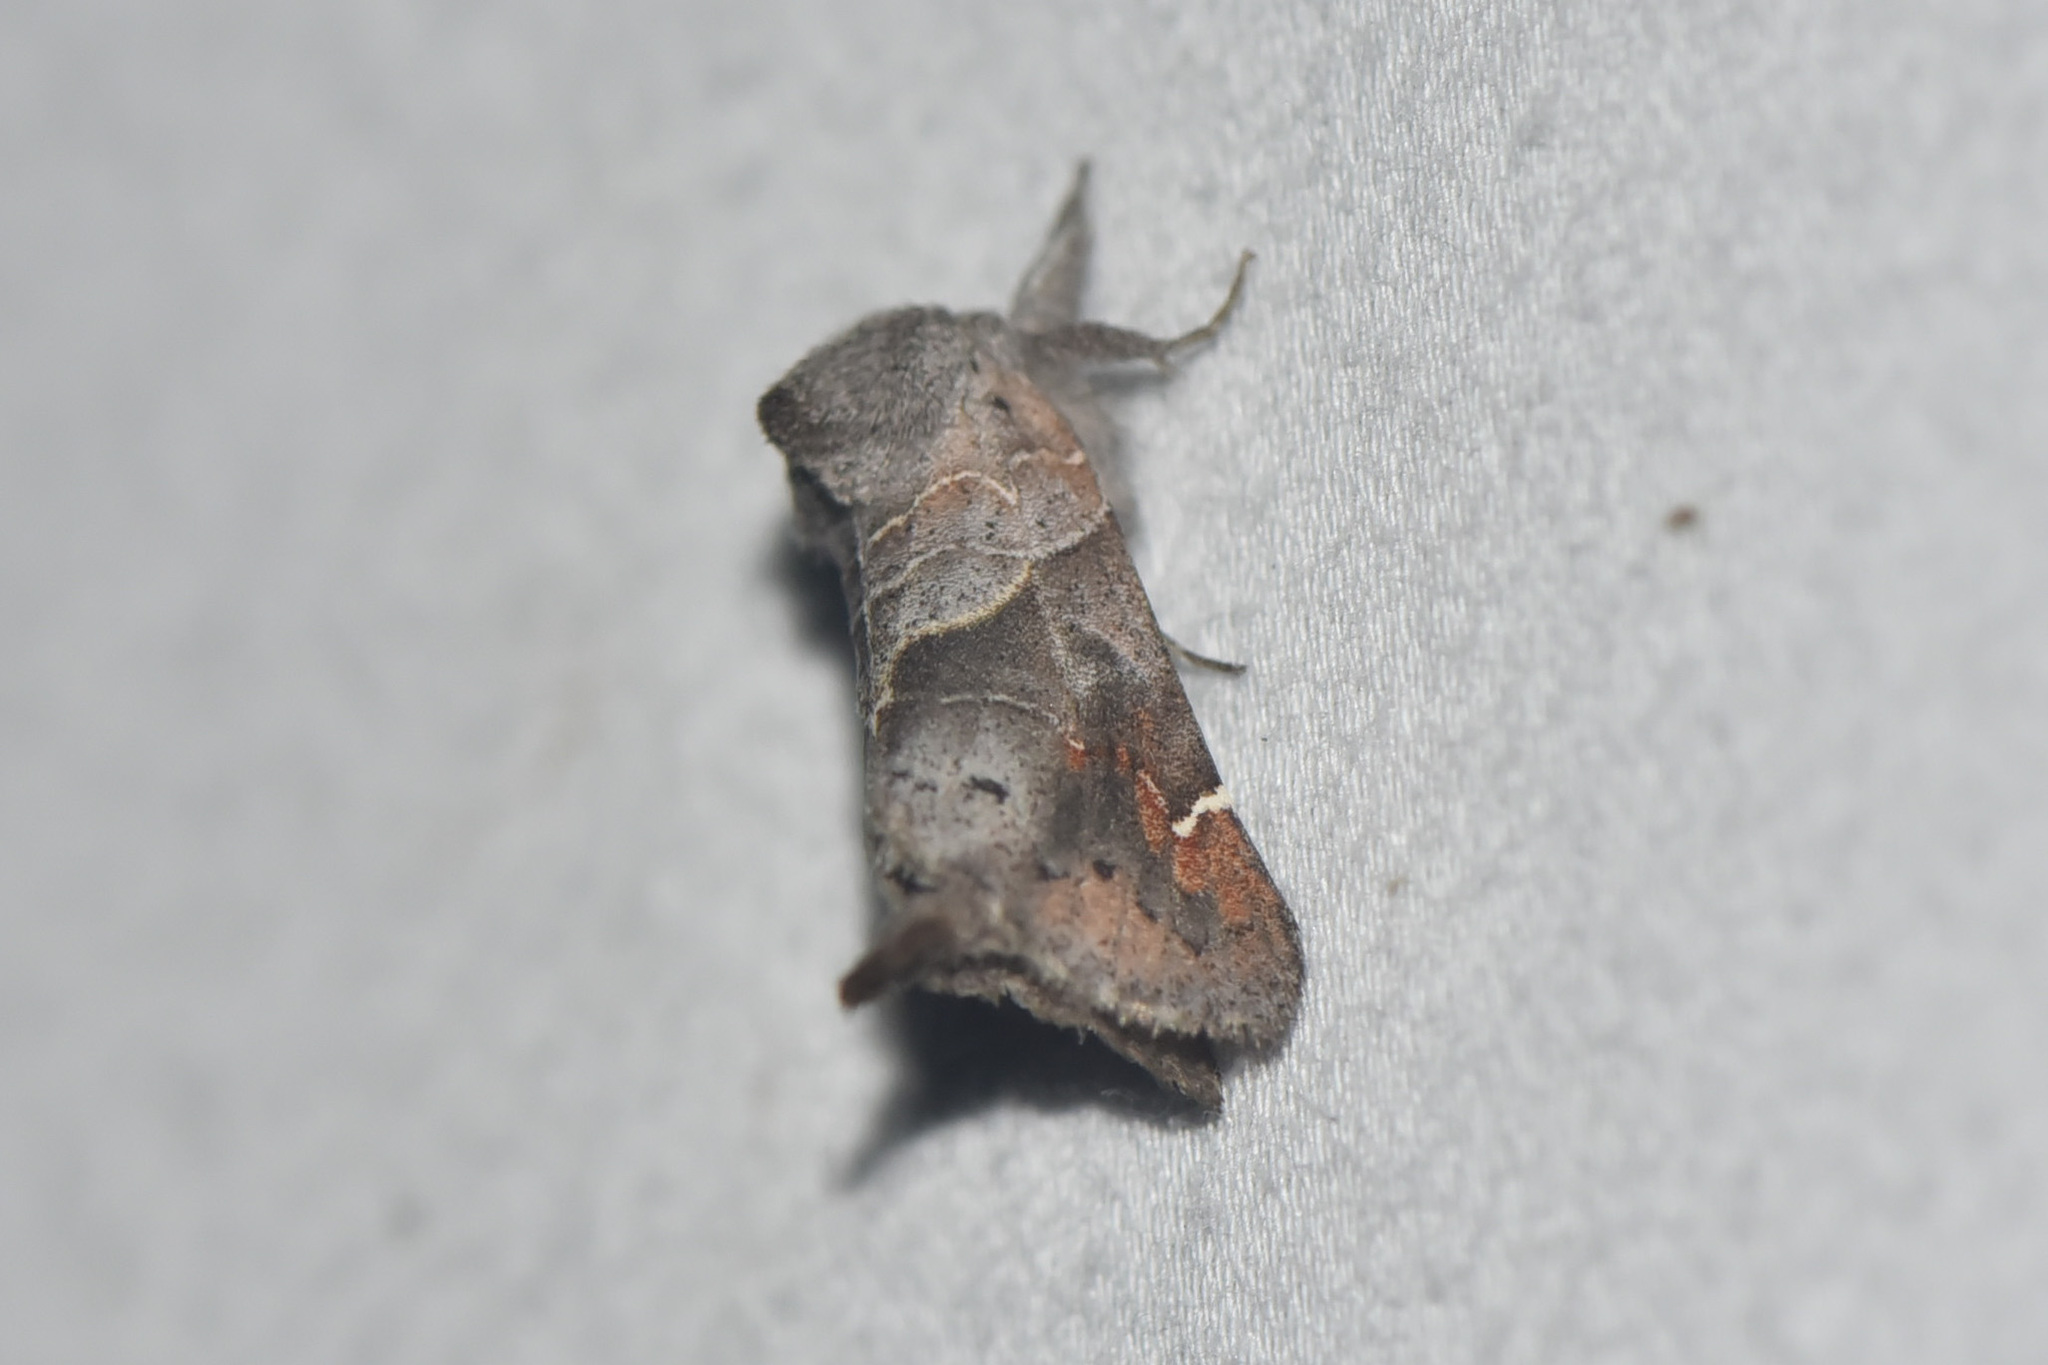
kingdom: Animalia
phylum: Arthropoda
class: Insecta
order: Lepidoptera
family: Notodontidae
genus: Clostera
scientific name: Clostera apicalis
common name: Apical prominent
